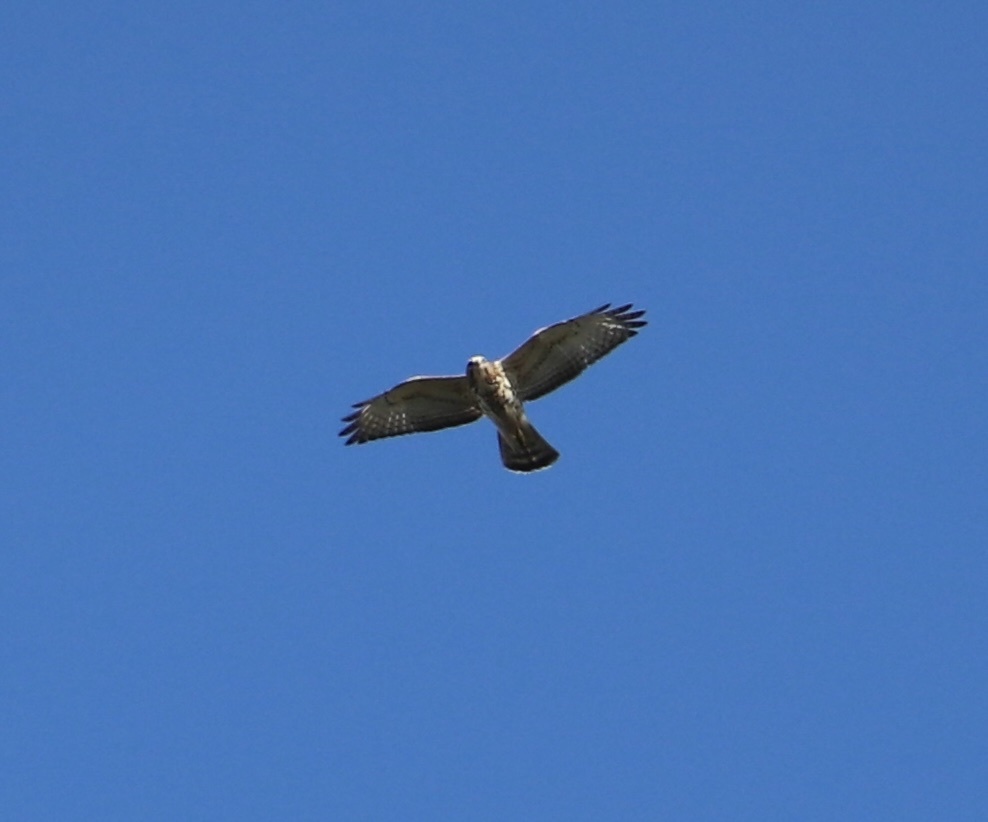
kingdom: Animalia
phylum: Chordata
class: Aves
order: Accipitriformes
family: Accipitridae
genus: Buteo
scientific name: Buteo platypterus
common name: Broad-winged hawk
